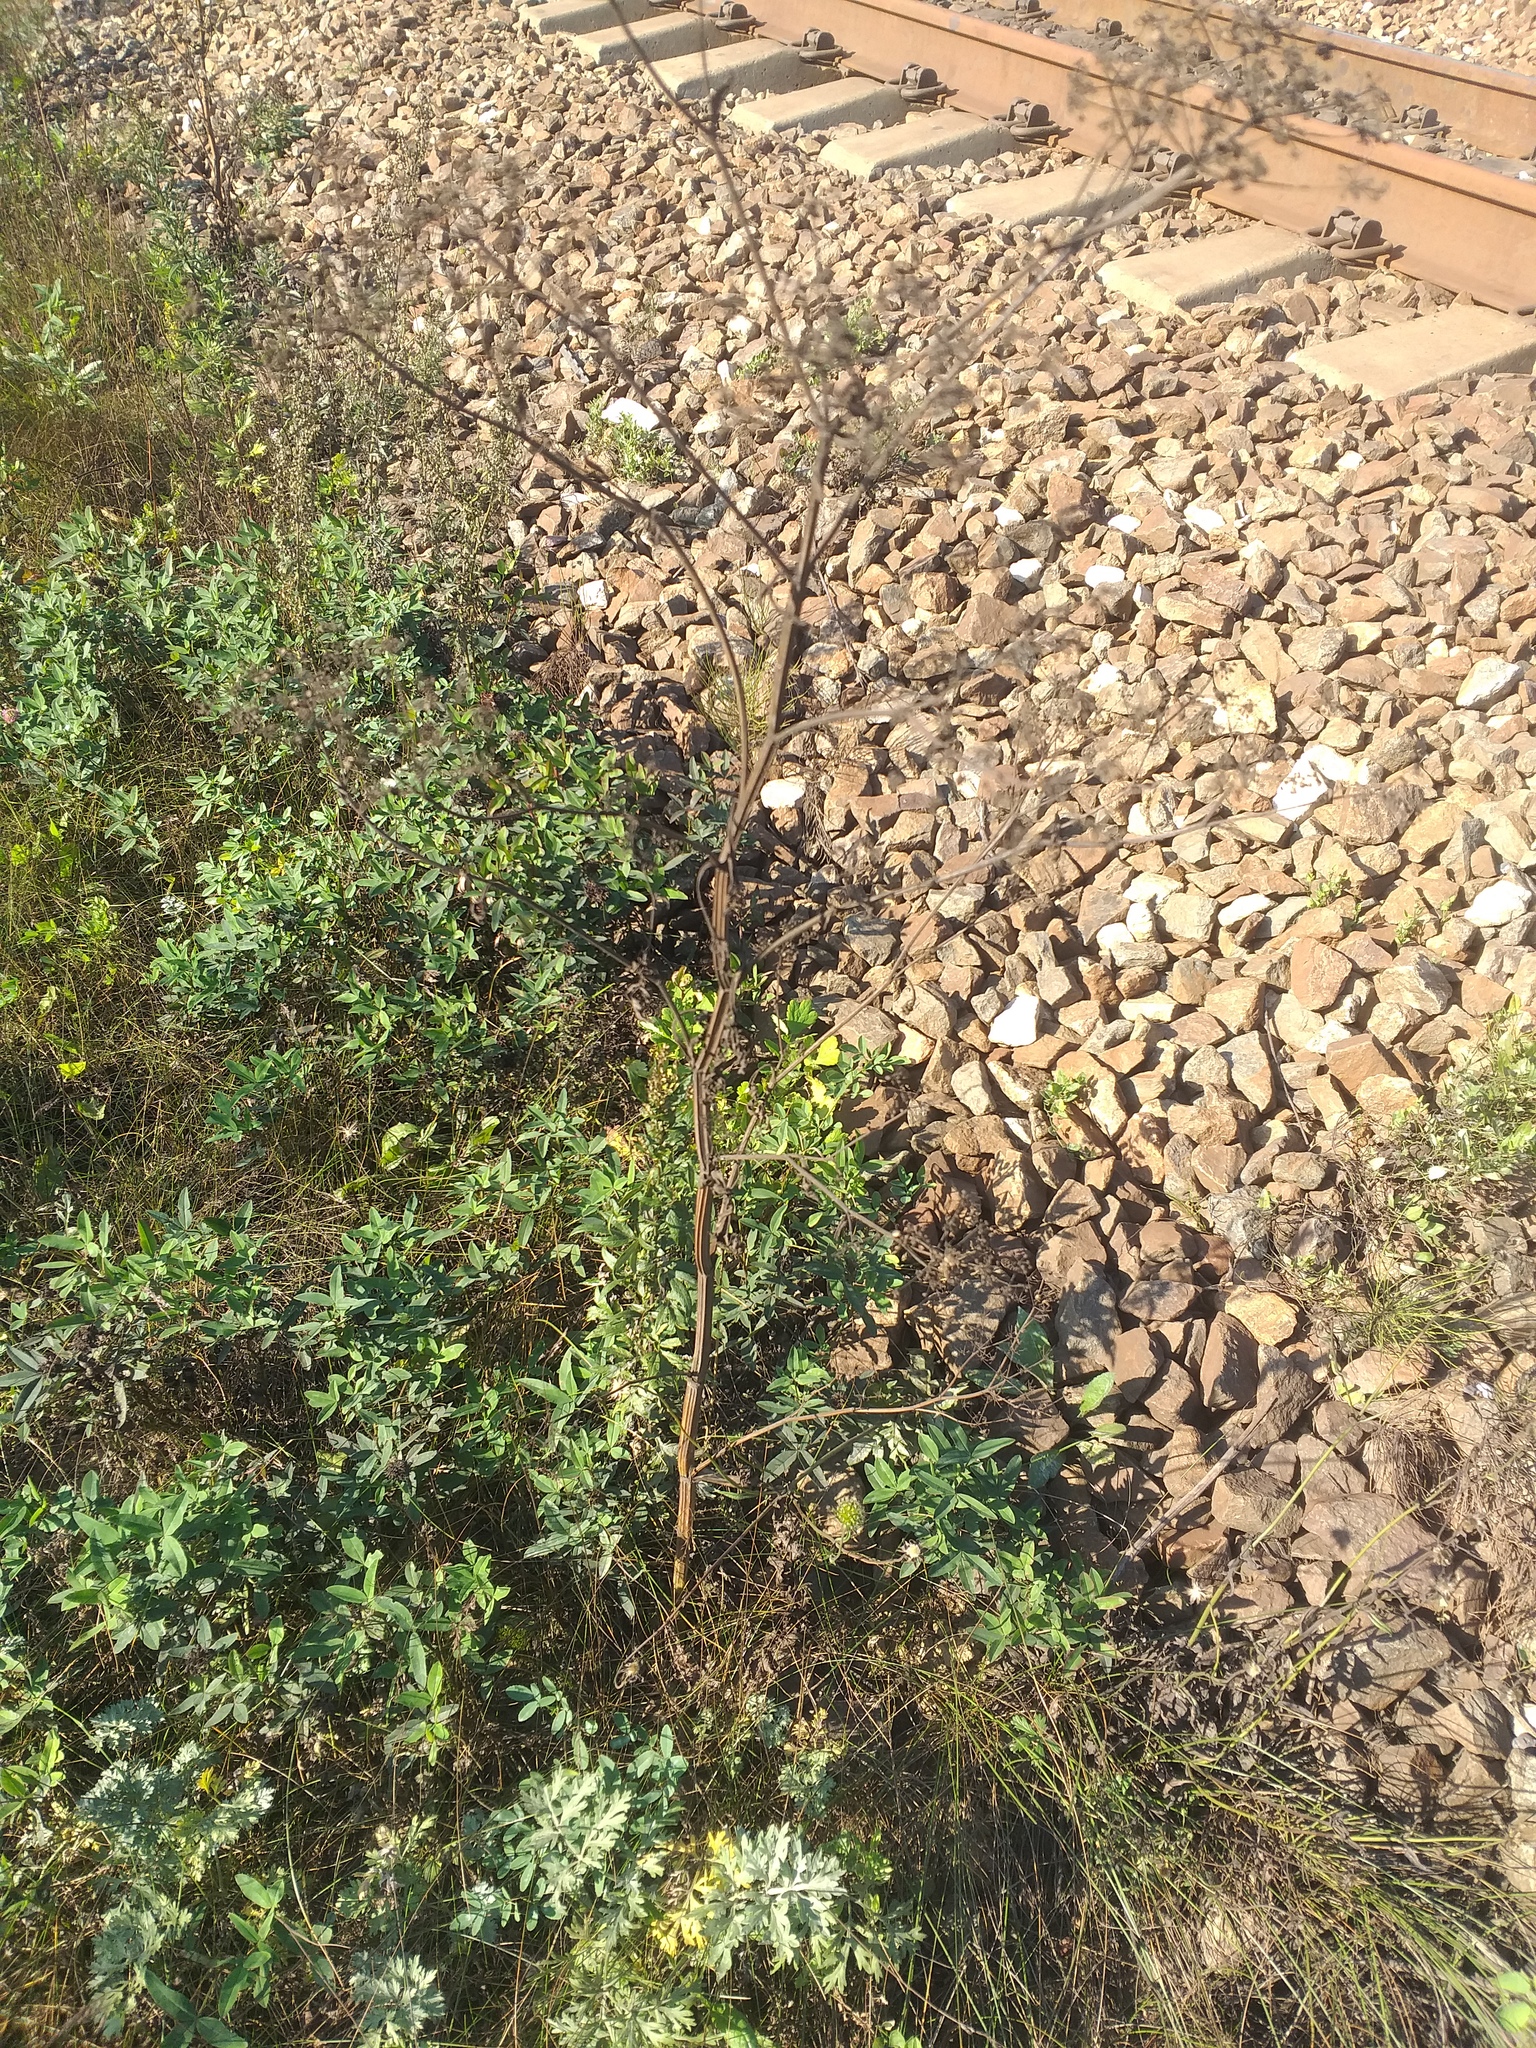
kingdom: Plantae
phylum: Tracheophyta
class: Magnoliopsida
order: Apiales
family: Apiaceae
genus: Pastinaca
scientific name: Pastinaca sativa
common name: Wild parsnip
